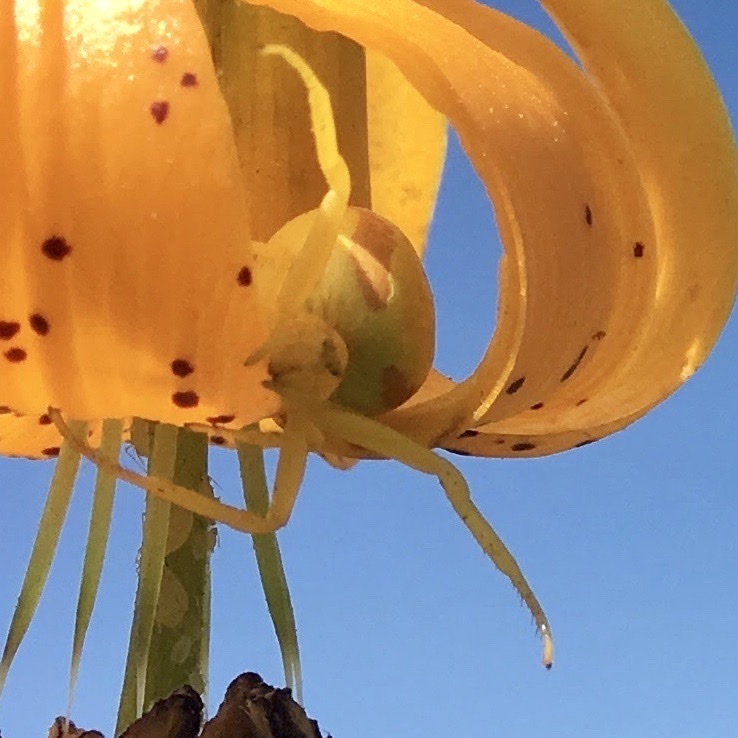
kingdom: Animalia
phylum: Arthropoda
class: Arachnida
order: Araneae
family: Thomisidae
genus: Misumena
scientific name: Misumena vatia
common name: Goldenrod crab spider
